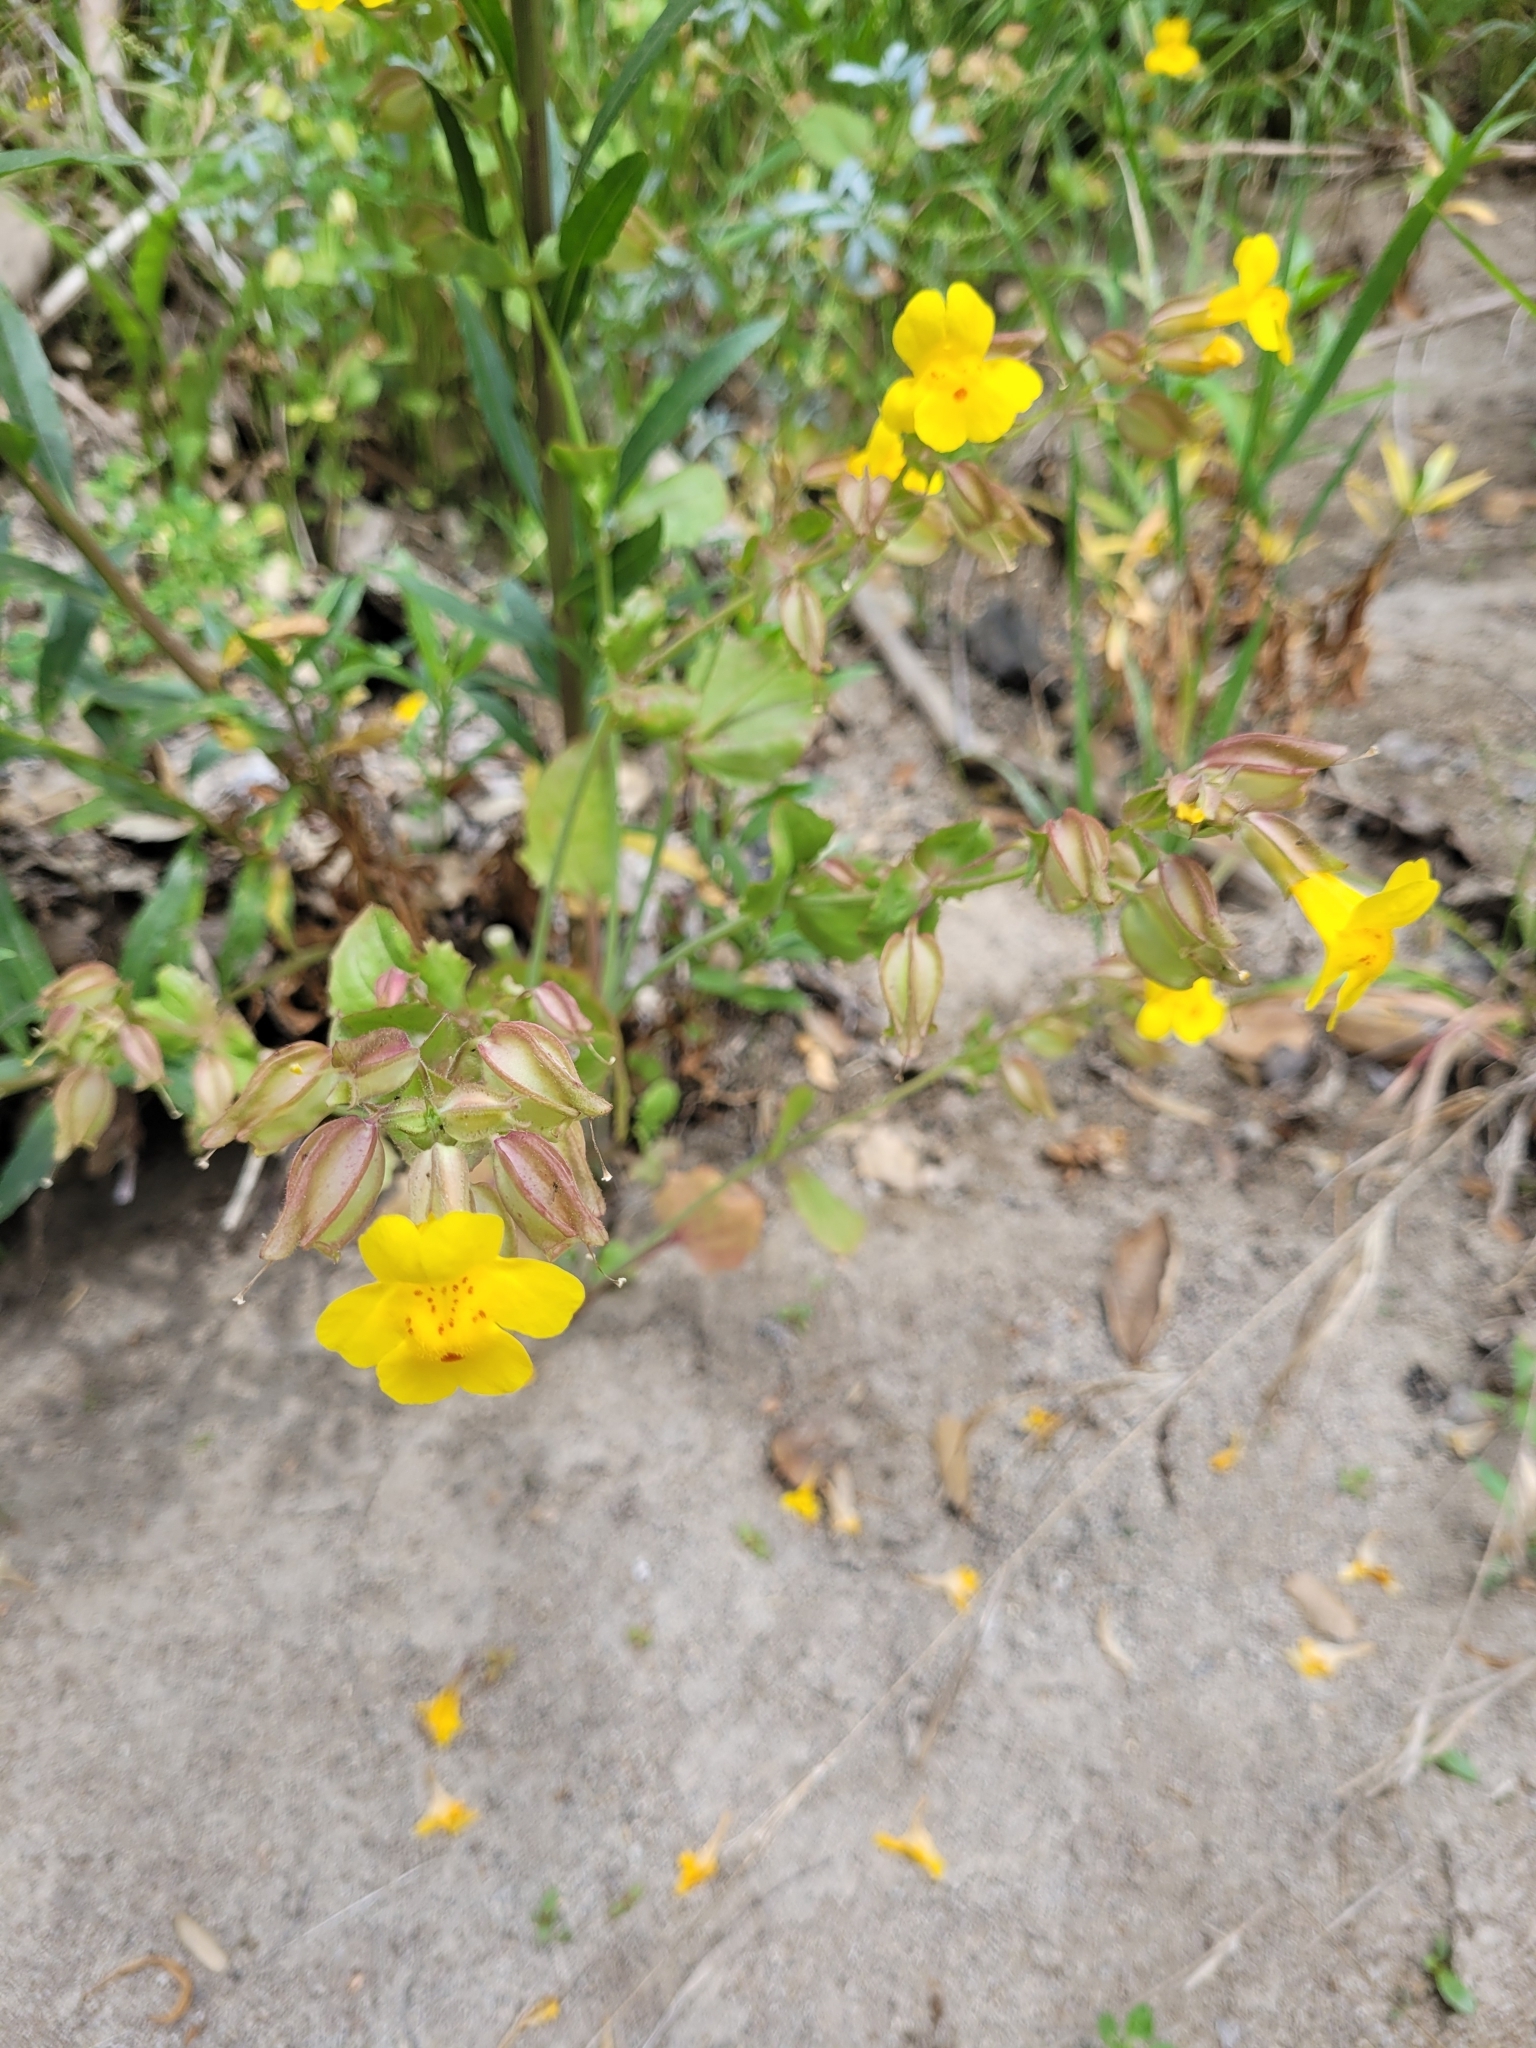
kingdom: Plantae
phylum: Tracheophyta
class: Magnoliopsida
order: Lamiales
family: Phrymaceae
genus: Erythranthe
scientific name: Erythranthe guttata
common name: Monkeyflower
